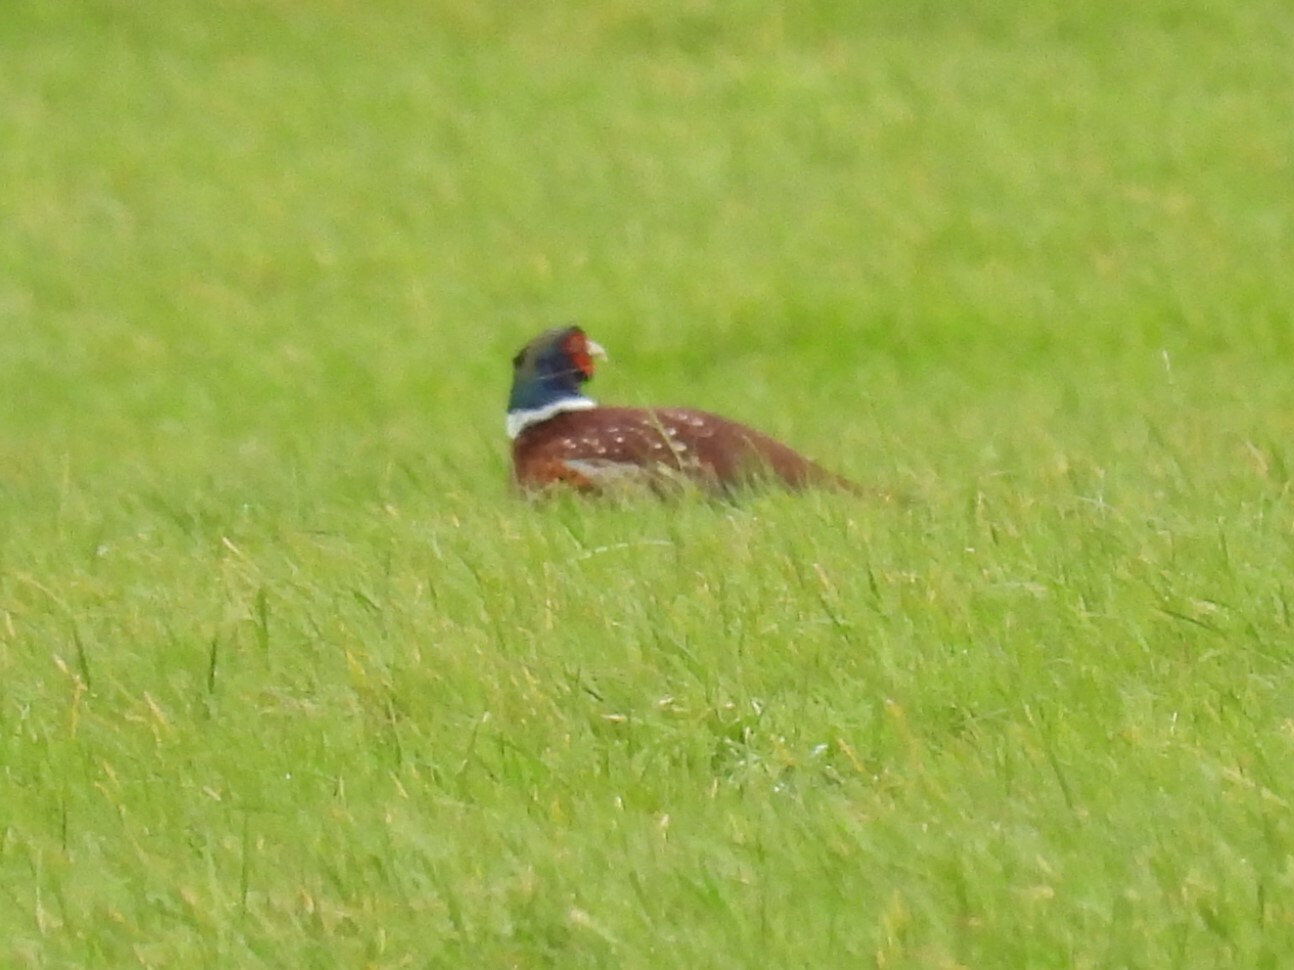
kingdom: Animalia
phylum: Chordata
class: Aves
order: Galliformes
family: Phasianidae
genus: Phasianus
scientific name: Phasianus colchicus
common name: Common pheasant
